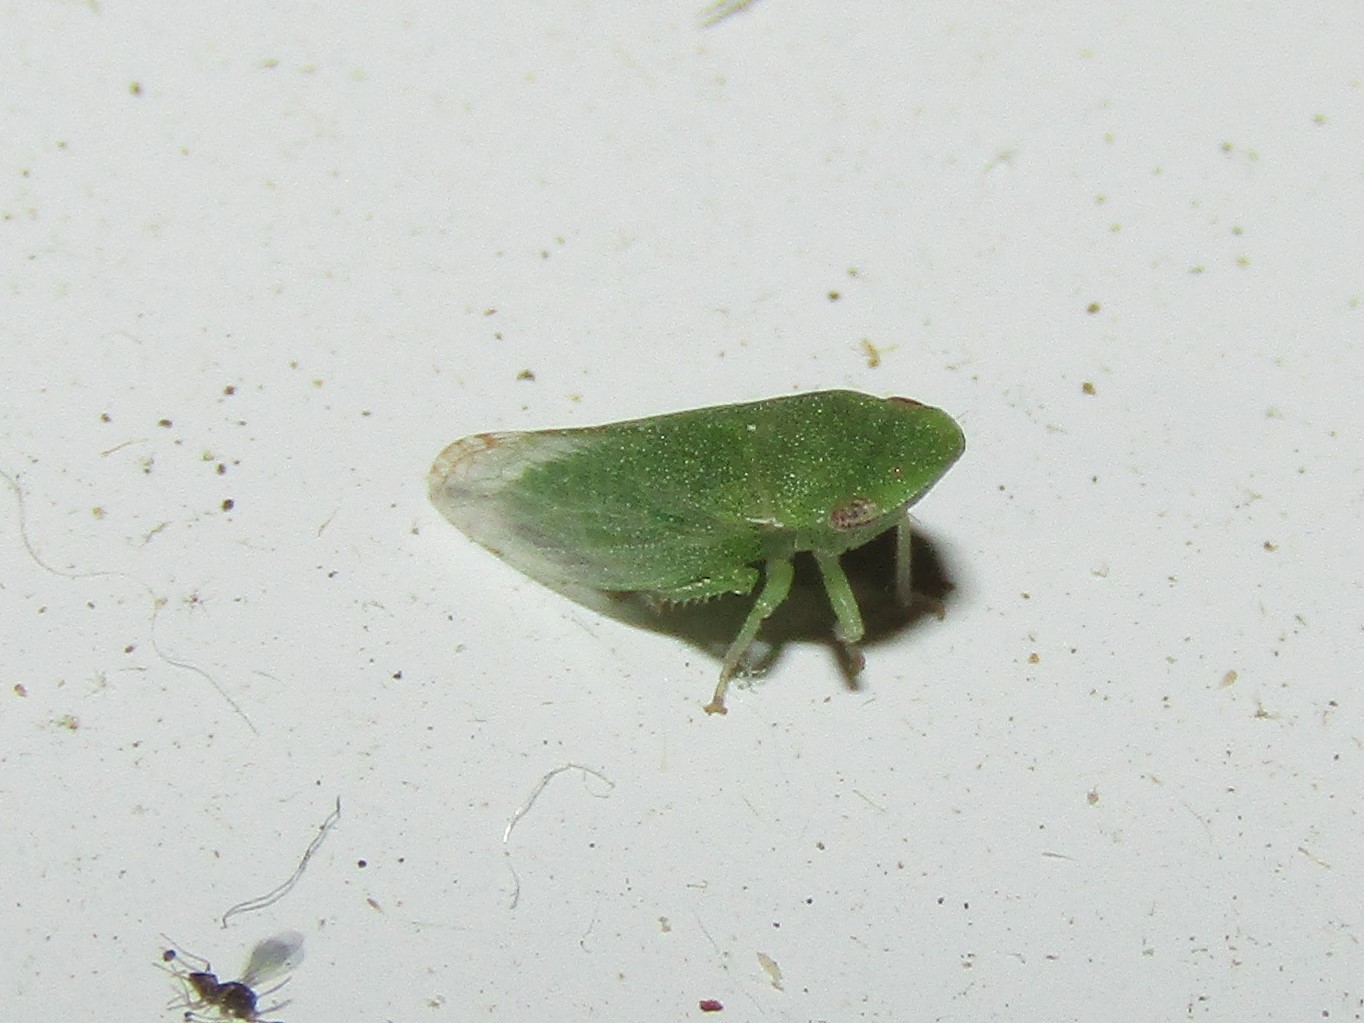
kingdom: Animalia
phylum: Arthropoda
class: Insecta
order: Hemiptera
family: Cicadellidae
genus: Xerophloea
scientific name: Xerophloea viridis
